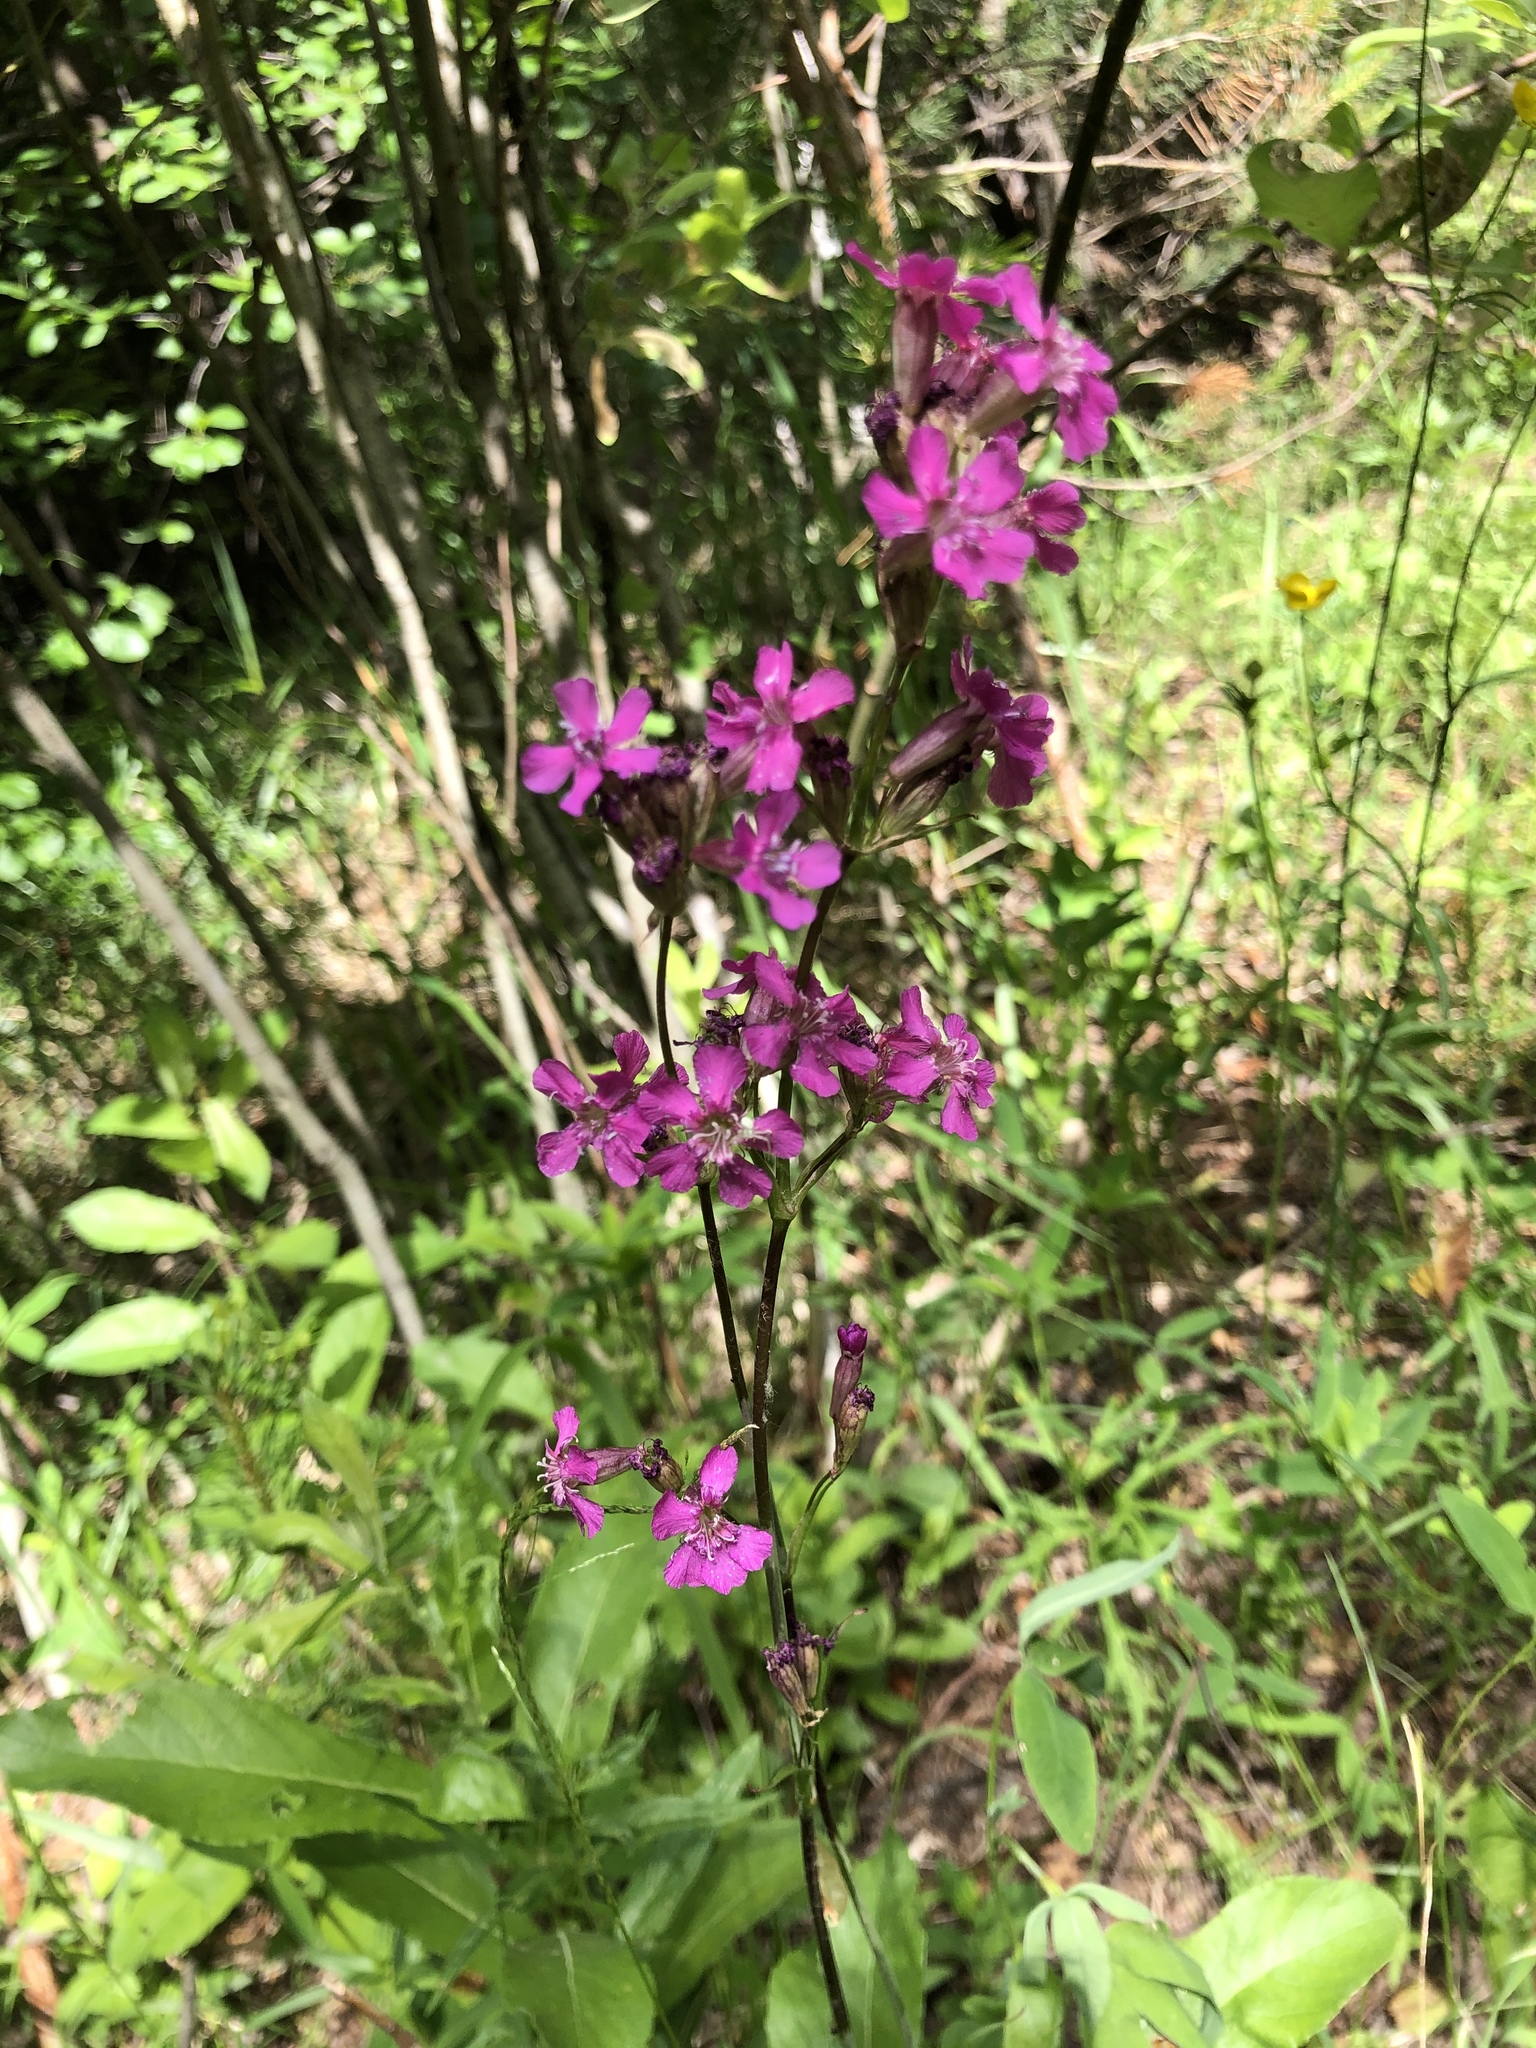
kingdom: Plantae
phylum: Tracheophyta
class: Magnoliopsida
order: Caryophyllales
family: Caryophyllaceae
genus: Viscaria
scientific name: Viscaria vulgaris
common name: Clammy campion
